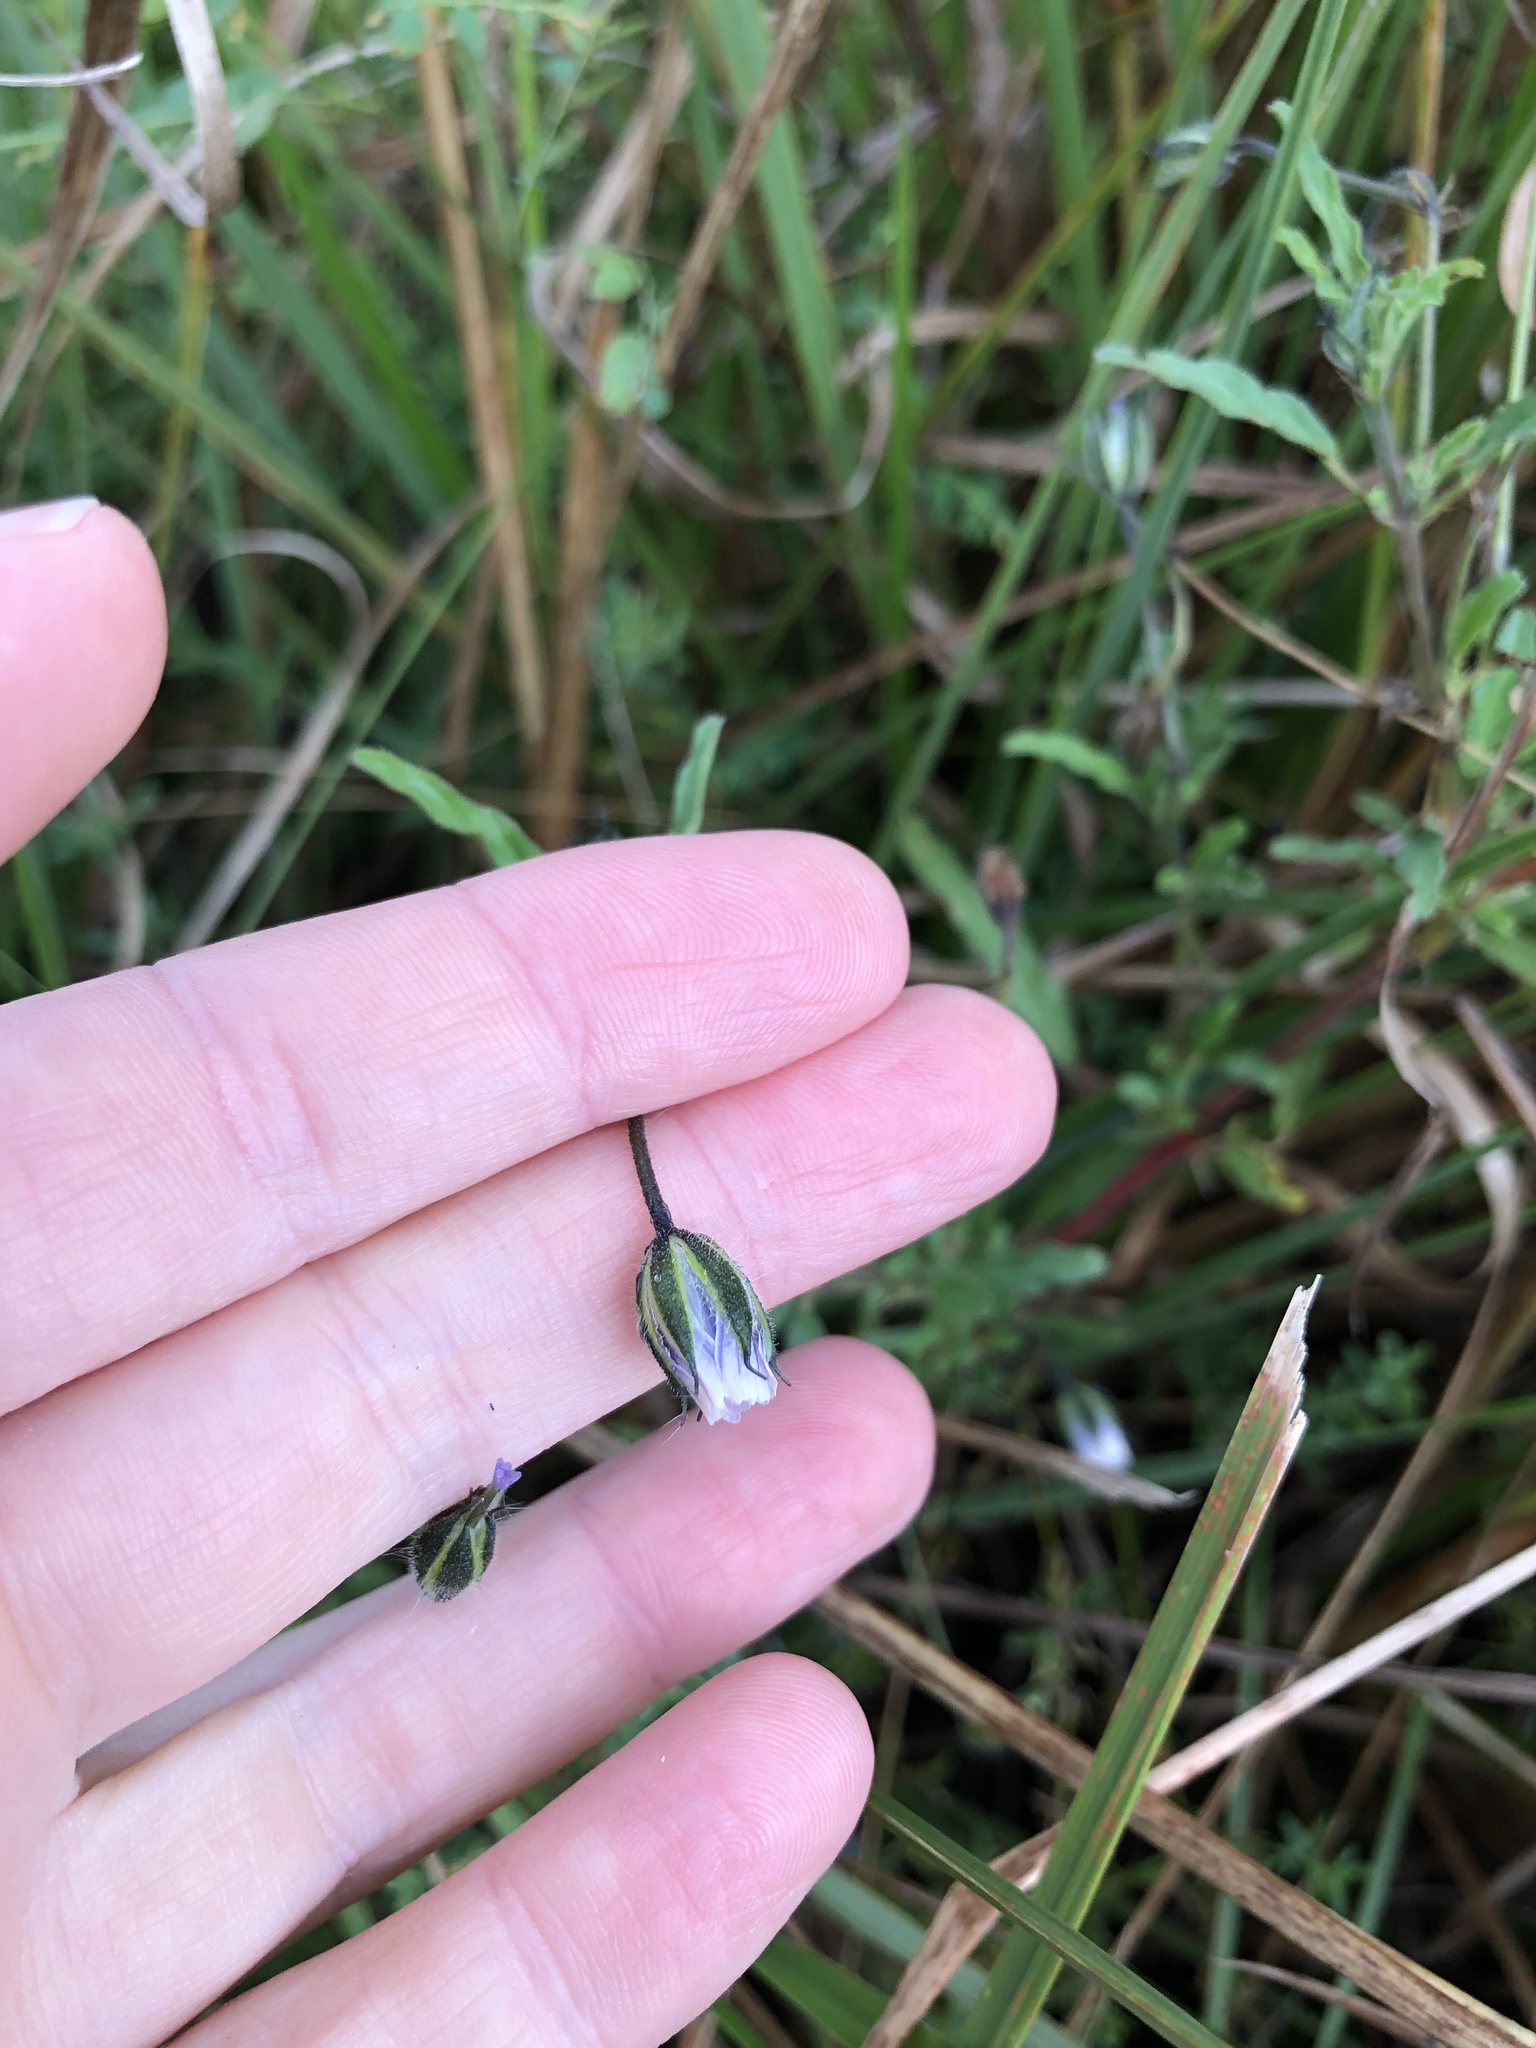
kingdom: Plantae
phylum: Tracheophyta
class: Magnoliopsida
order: Geraniales
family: Geraniaceae
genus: Monsonia
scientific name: Monsonia angustifolia
